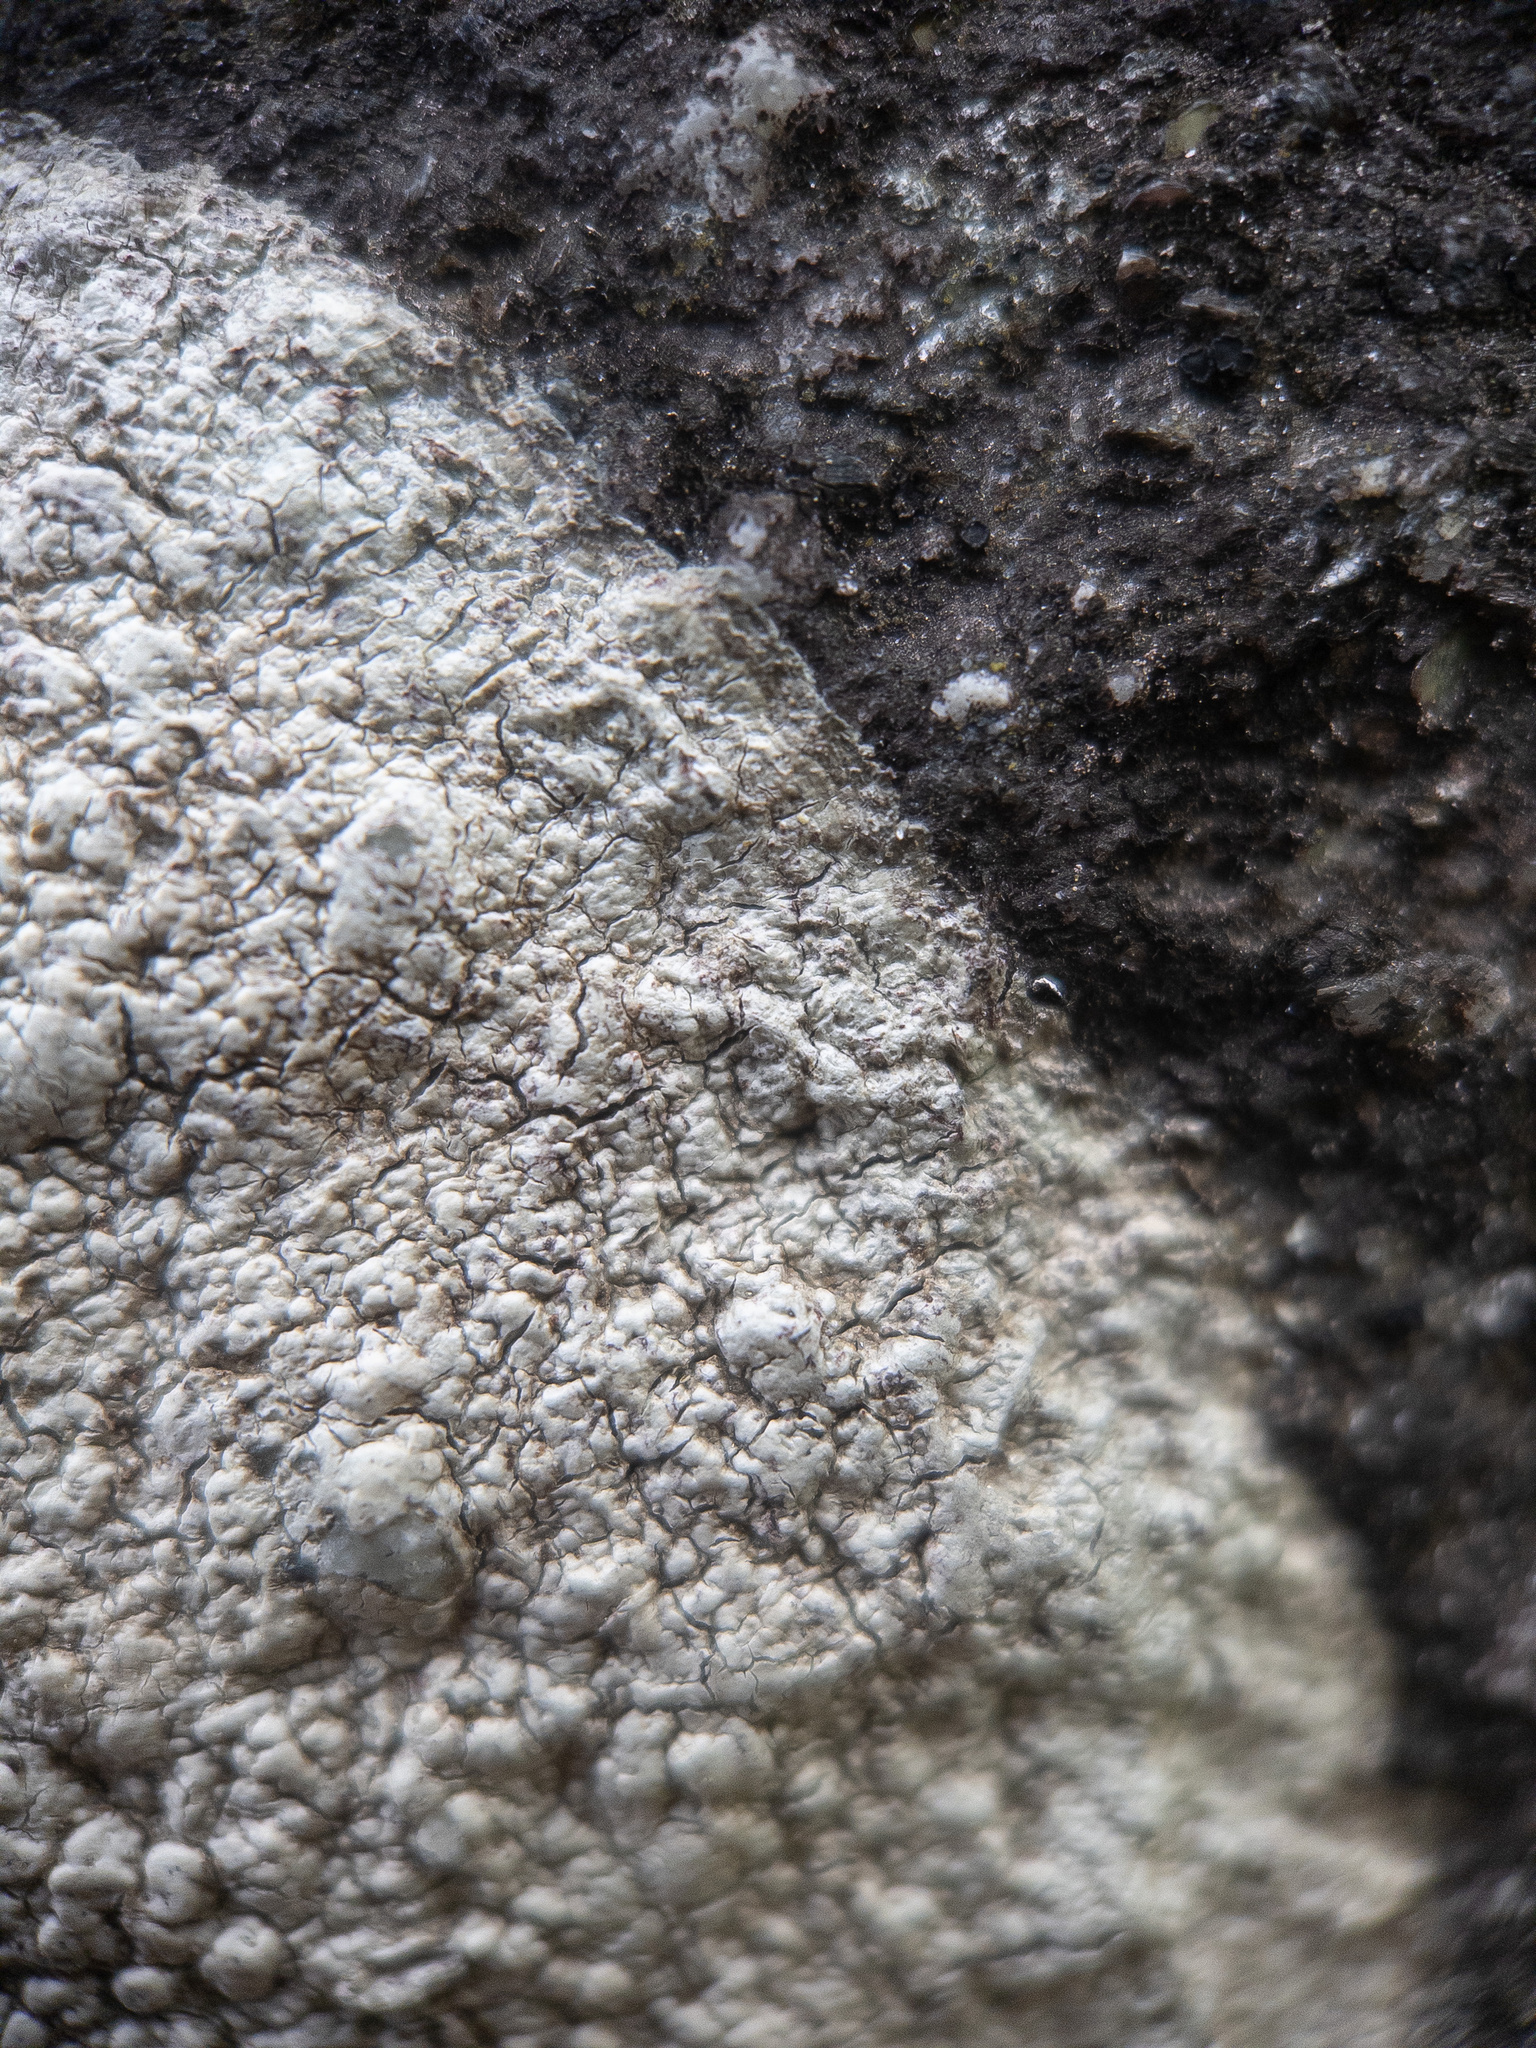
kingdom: Fungi
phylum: Ascomycota
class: Lecanoromycetes
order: Pertusariales
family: Pertusariaceae
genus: Pertusaria
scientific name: Pertusaria plittiana
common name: Rock wart lichen
